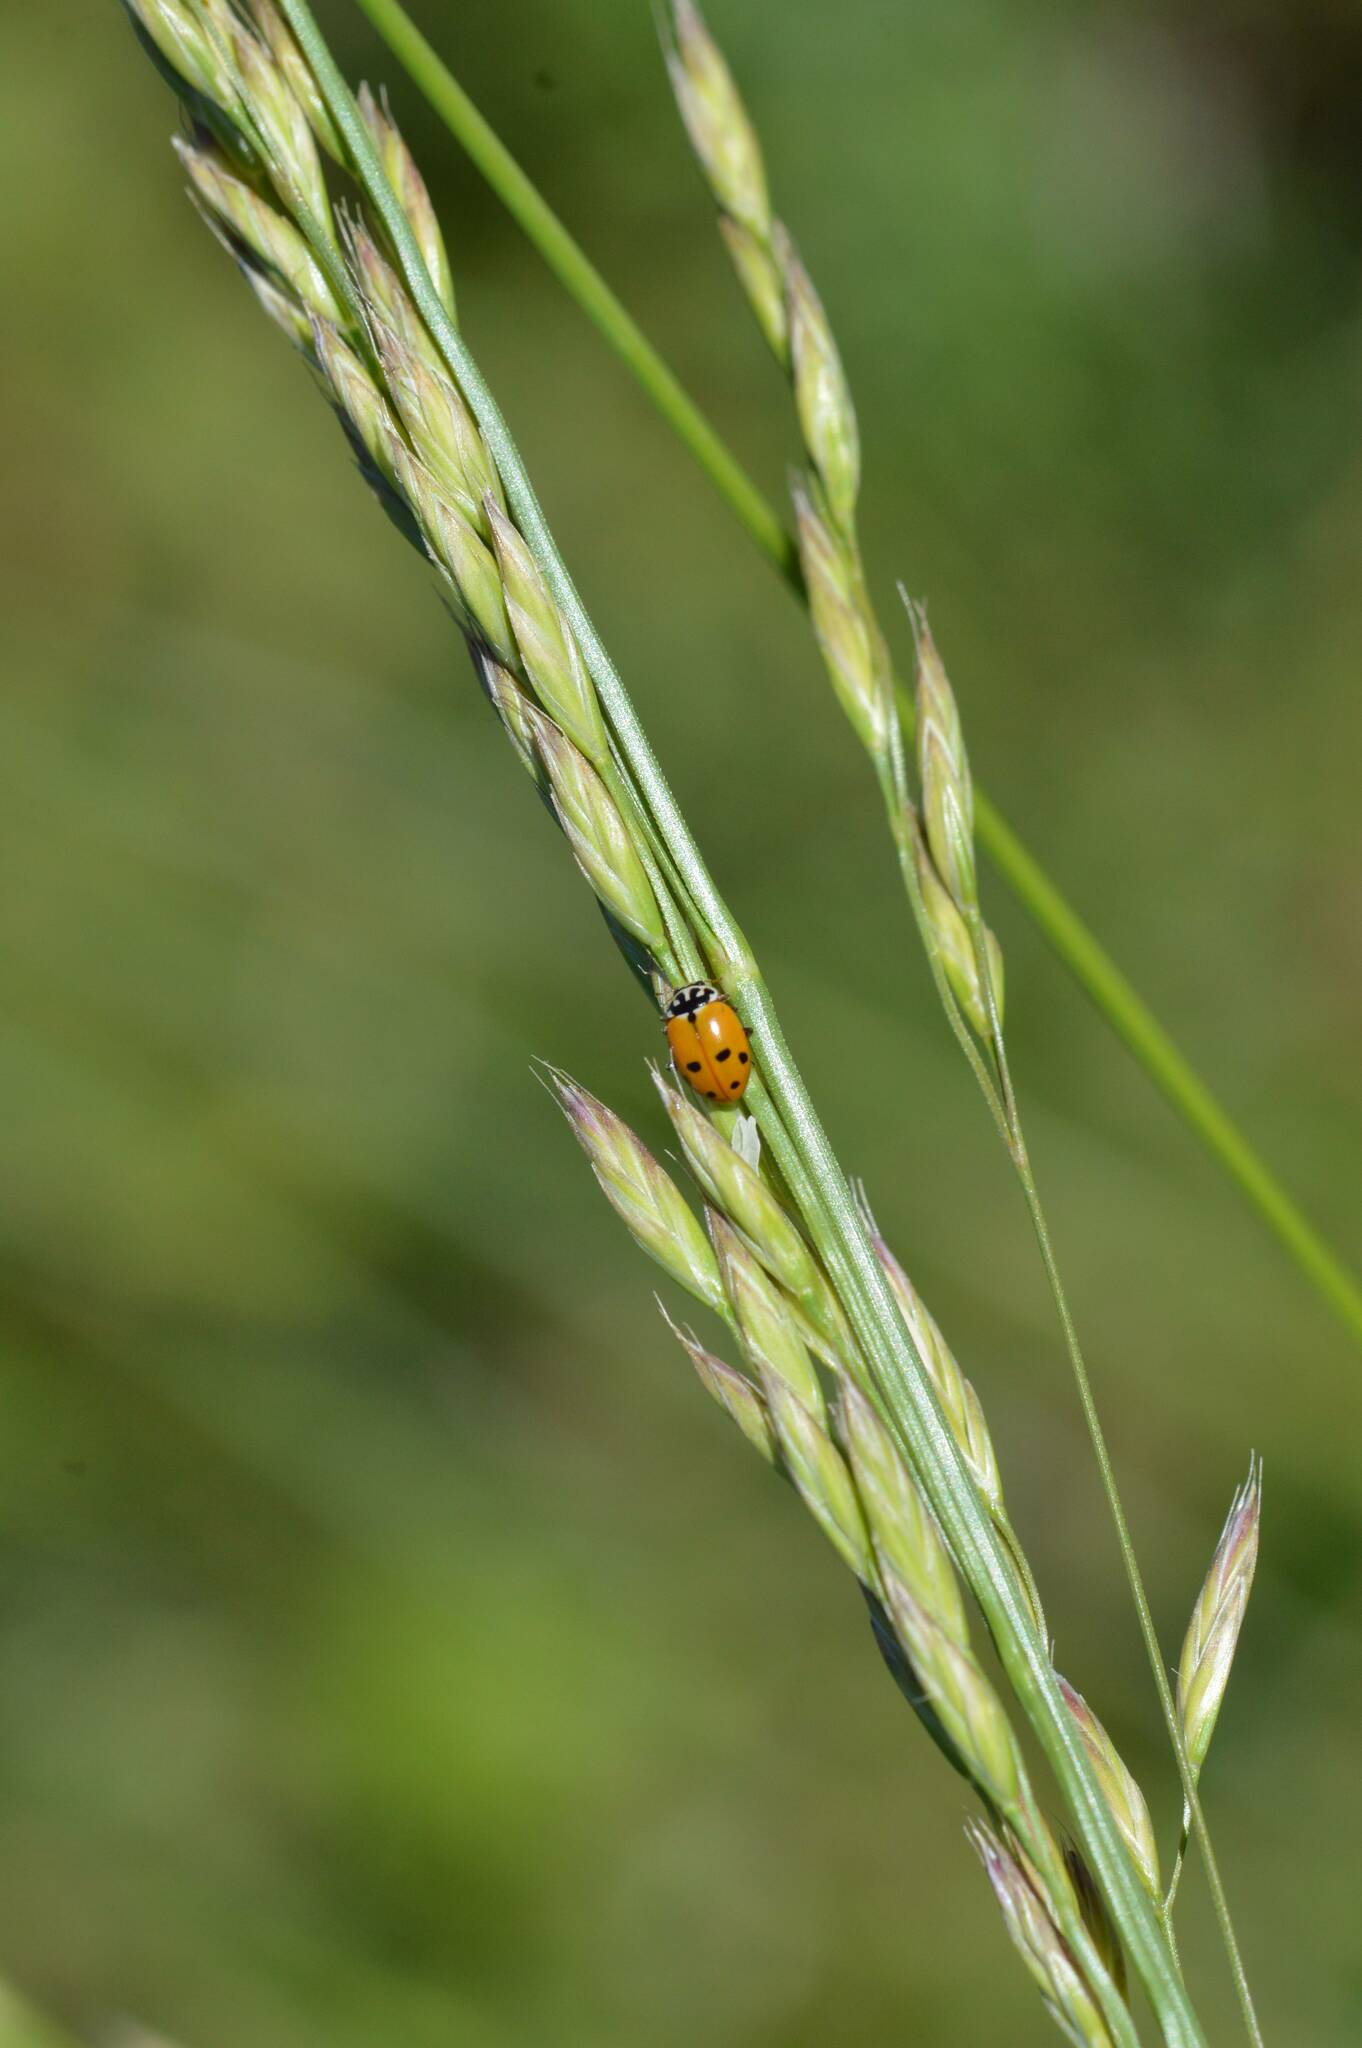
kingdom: Animalia
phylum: Arthropoda
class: Insecta
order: Coleoptera
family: Coccinellidae
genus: Hippodamia
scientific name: Hippodamia variegata
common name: Ladybird beetle
